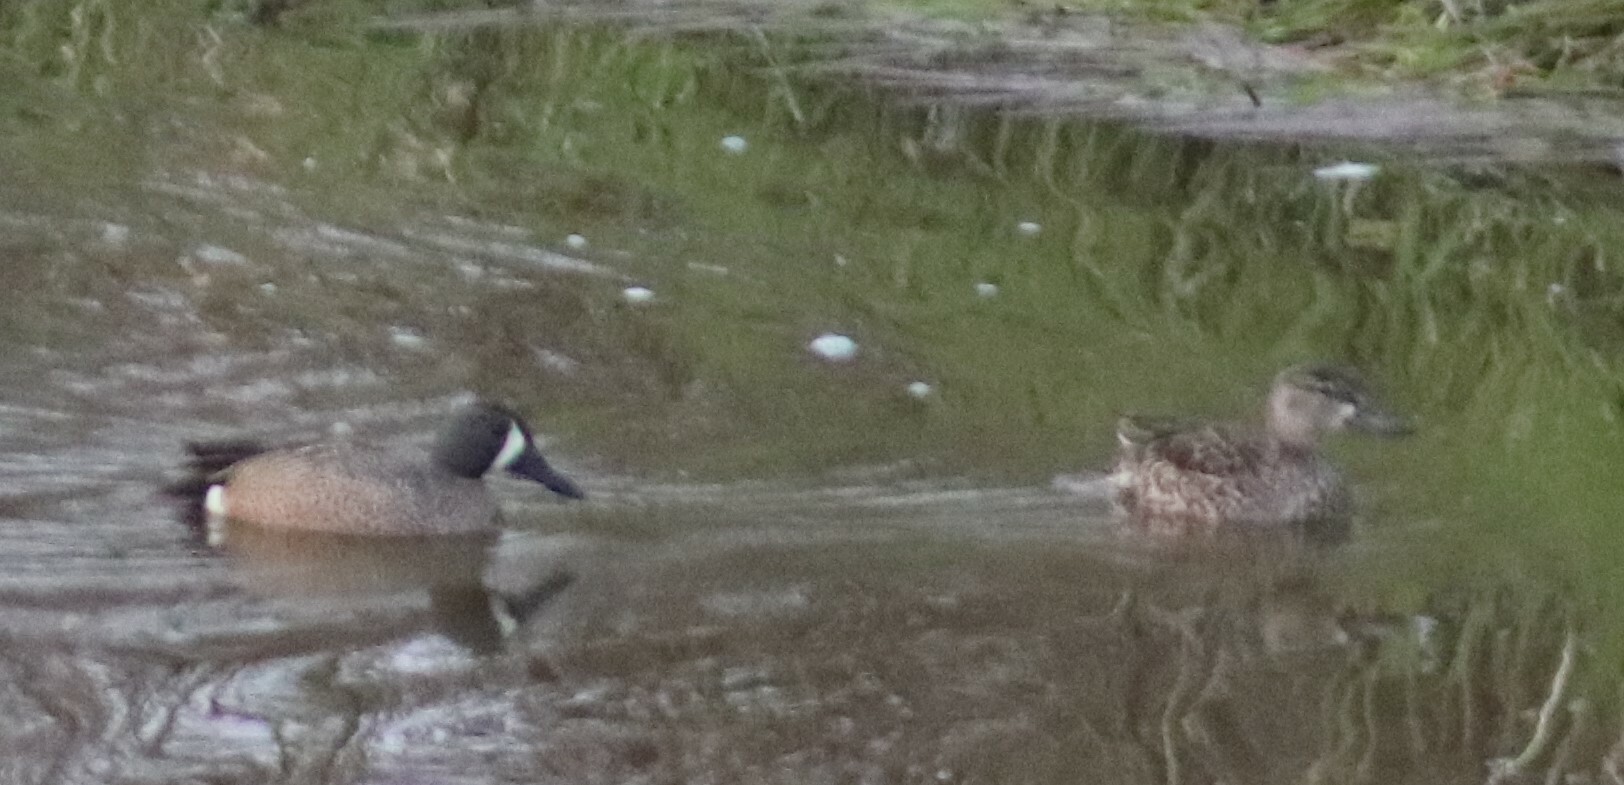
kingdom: Animalia
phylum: Chordata
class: Aves
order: Anseriformes
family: Anatidae
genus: Spatula
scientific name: Spatula discors
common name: Blue-winged teal
